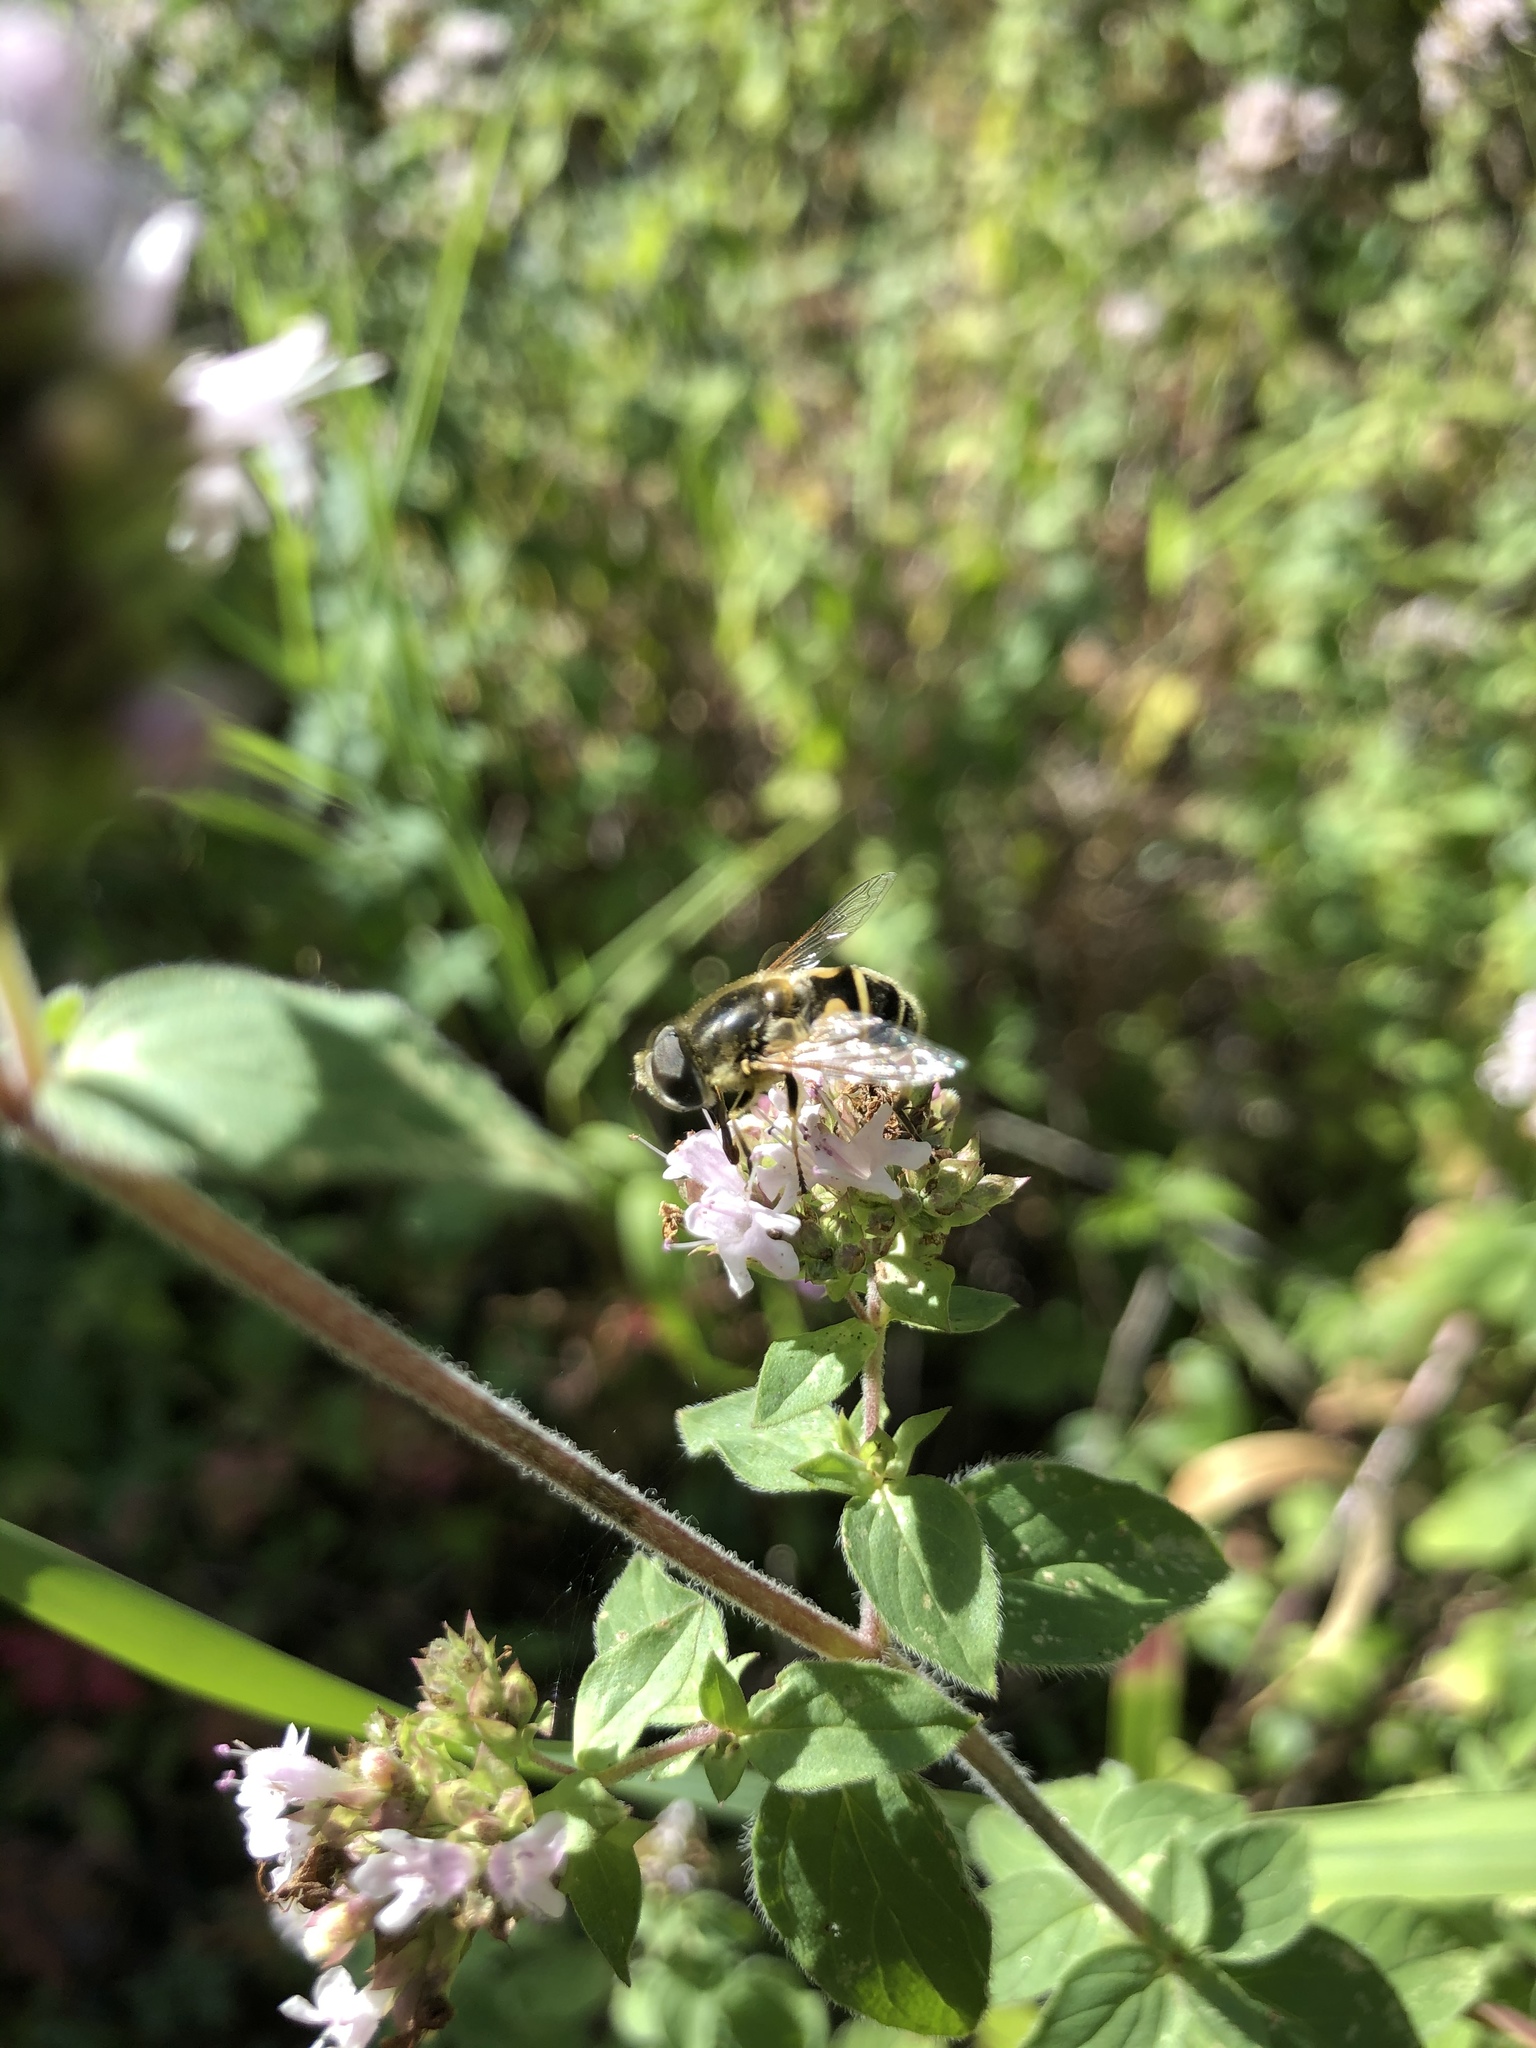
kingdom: Animalia
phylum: Arthropoda
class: Insecta
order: Diptera
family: Syrphidae
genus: Eristalis
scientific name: Eristalis hirta
